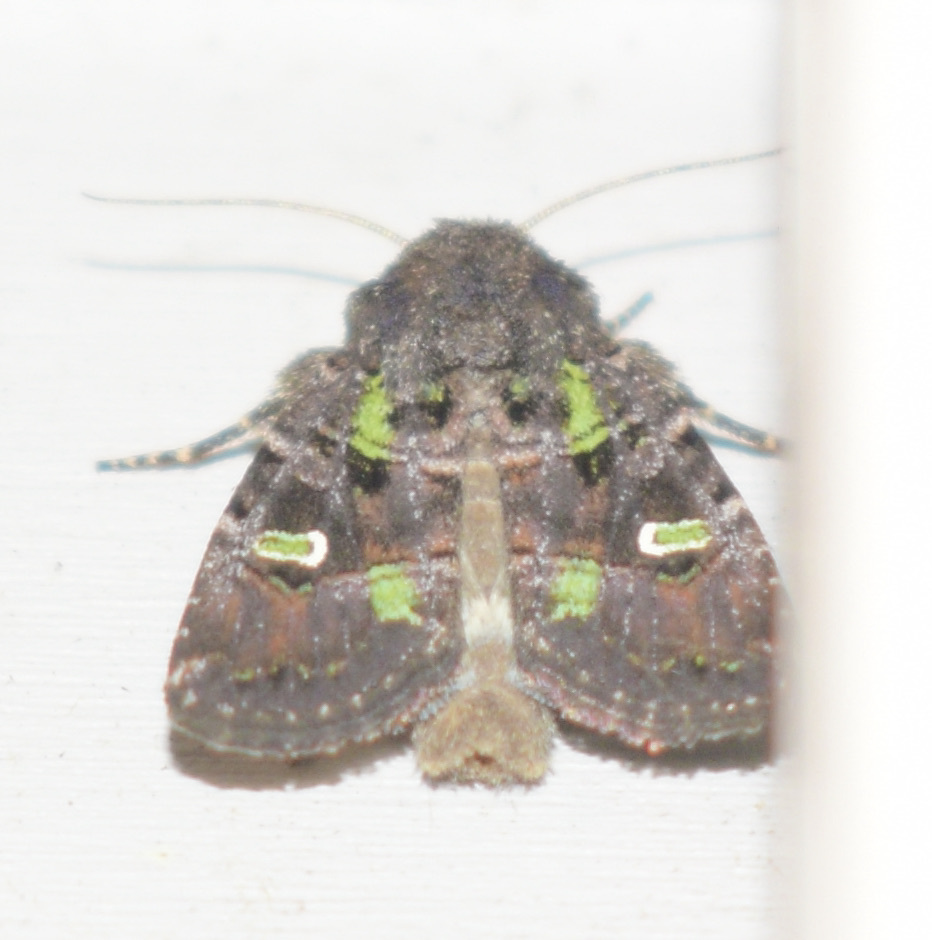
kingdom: Animalia
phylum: Arthropoda
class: Insecta
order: Lepidoptera
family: Noctuidae
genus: Lacinipolia
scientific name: Lacinipolia renigera
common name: Kidney-spotted minor
